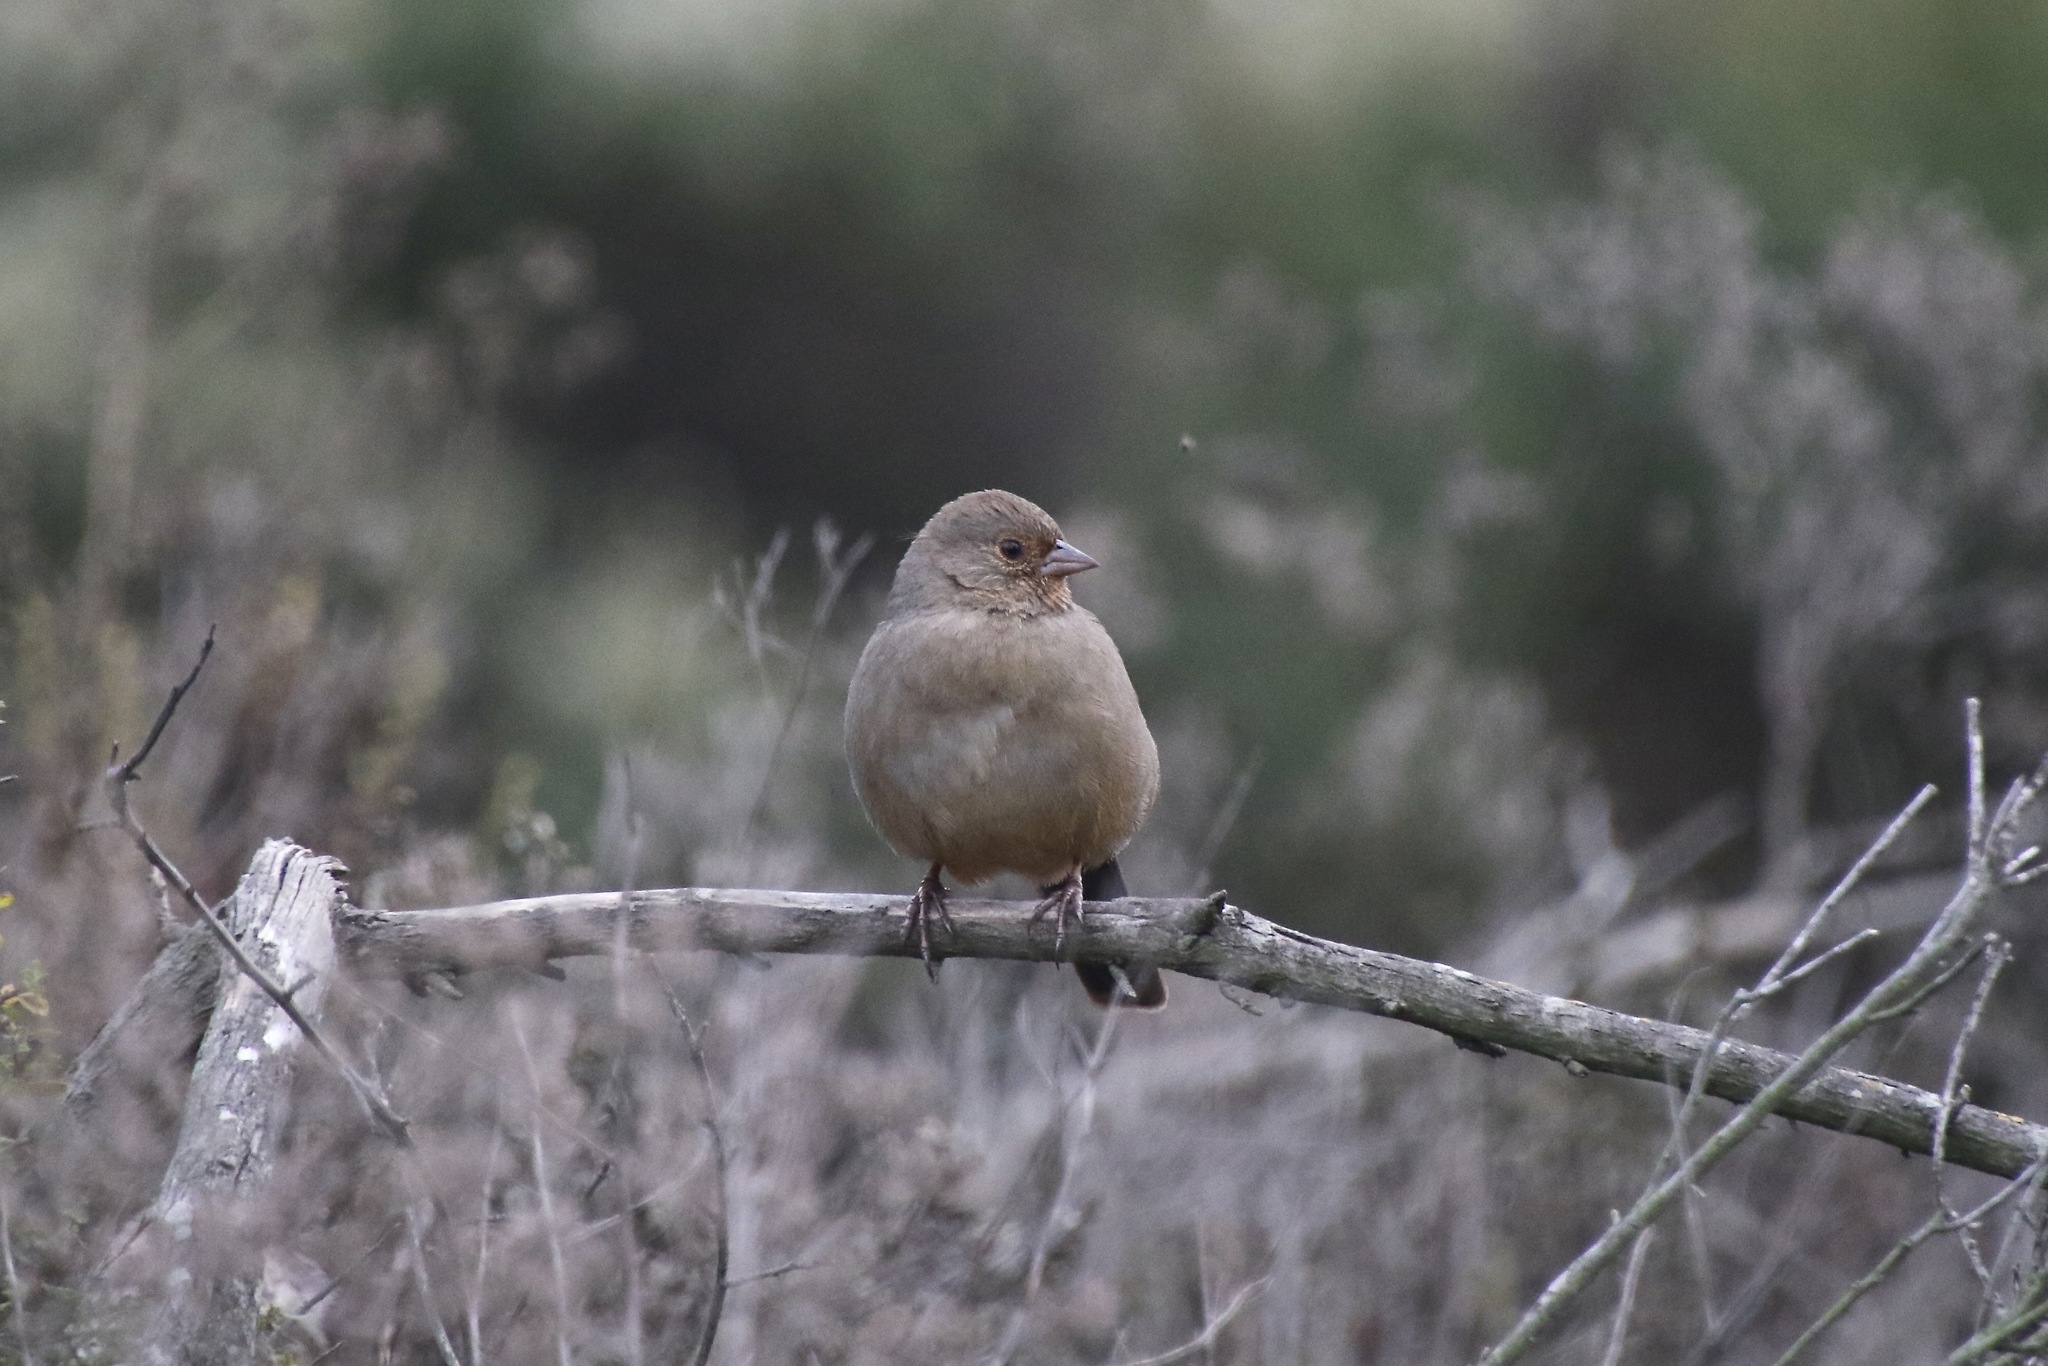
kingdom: Animalia
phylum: Chordata
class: Aves
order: Passeriformes
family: Passerellidae
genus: Melozone
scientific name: Melozone crissalis
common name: California towhee
